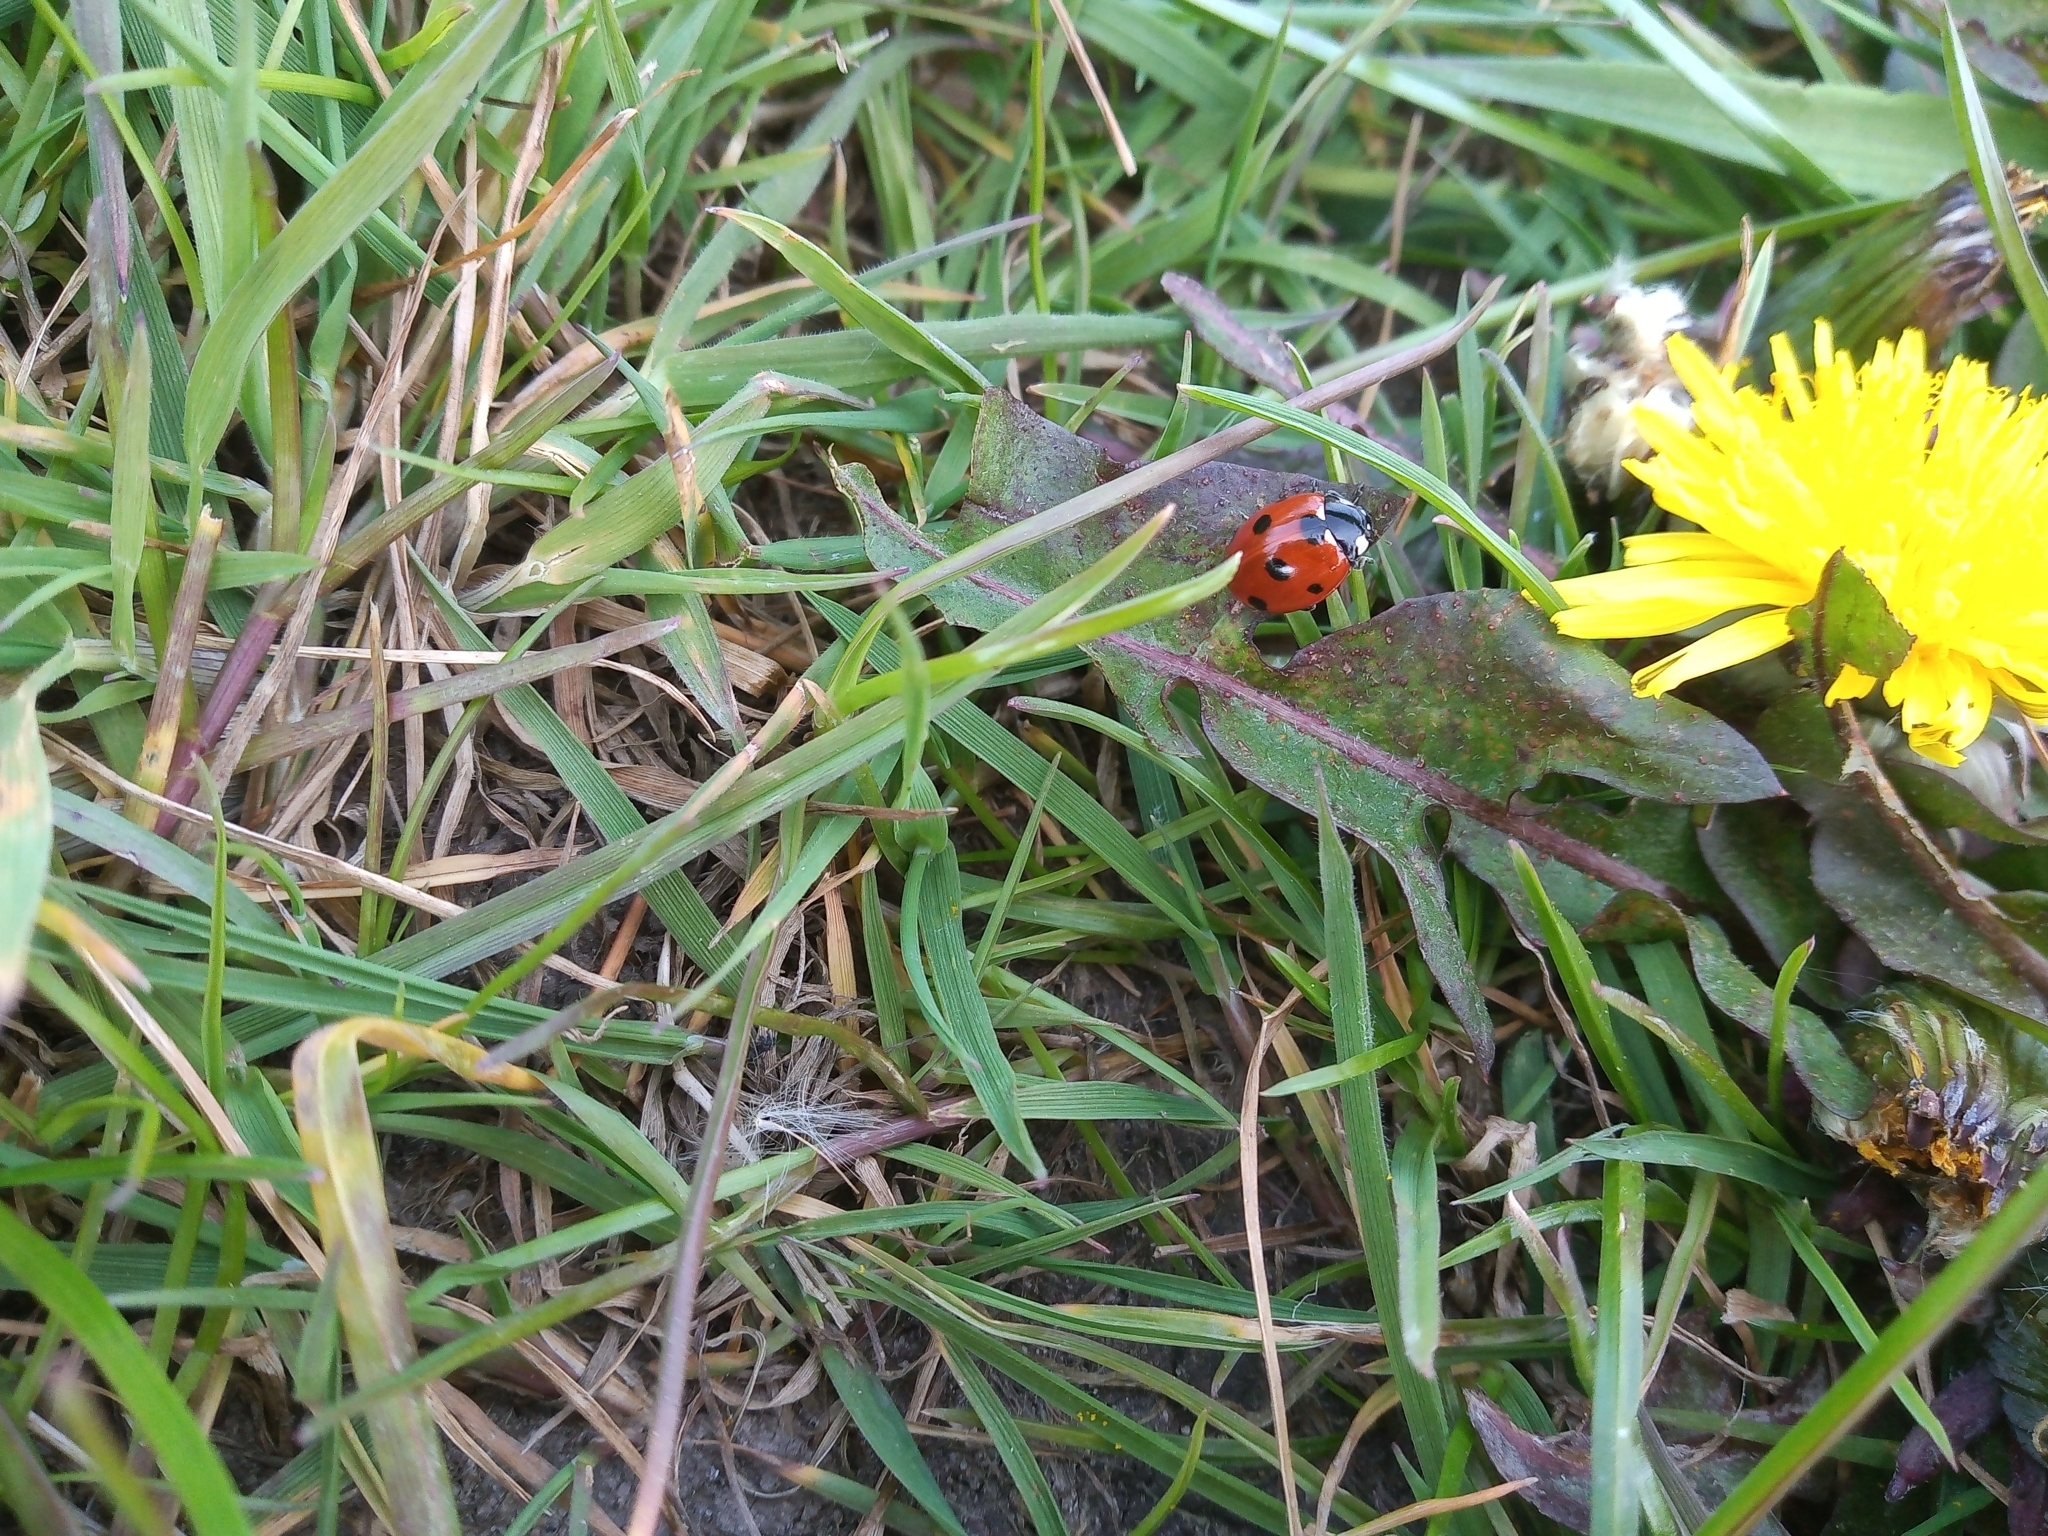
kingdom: Animalia
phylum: Arthropoda
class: Insecta
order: Coleoptera
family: Coccinellidae
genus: Coccinella
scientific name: Coccinella septempunctata
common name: Sevenspotted lady beetle
